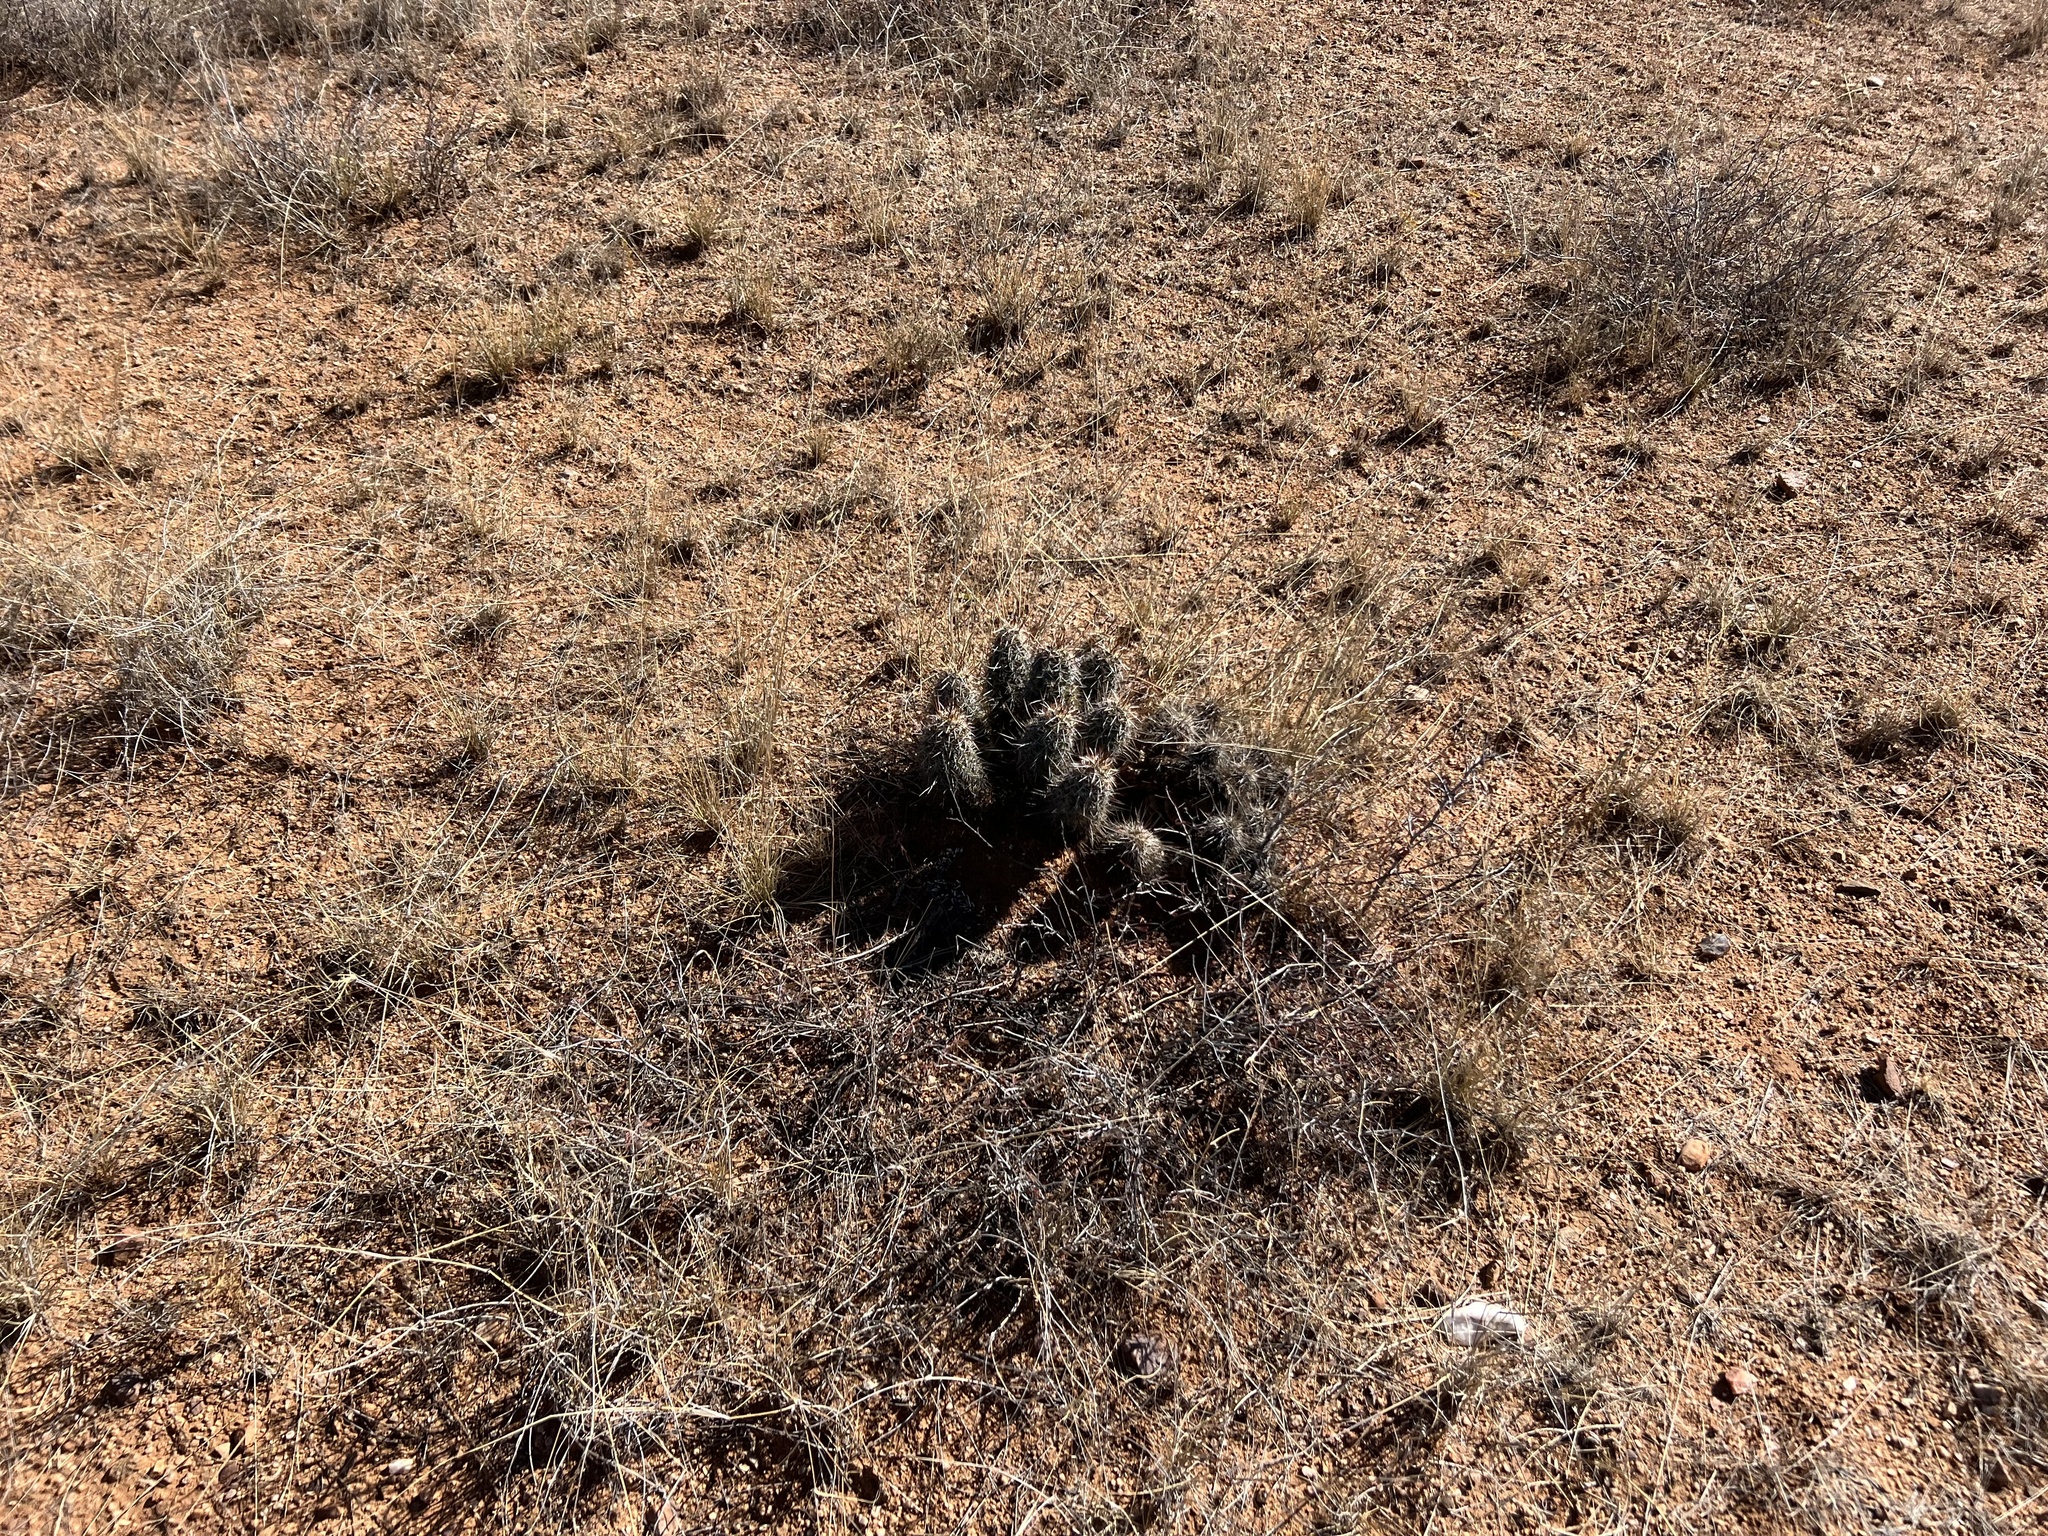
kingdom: Plantae
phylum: Tracheophyta
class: Magnoliopsida
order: Caryophyllales
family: Cactaceae
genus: Echinocereus
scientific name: Echinocereus fasciculatus
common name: Bundle hedgehog
